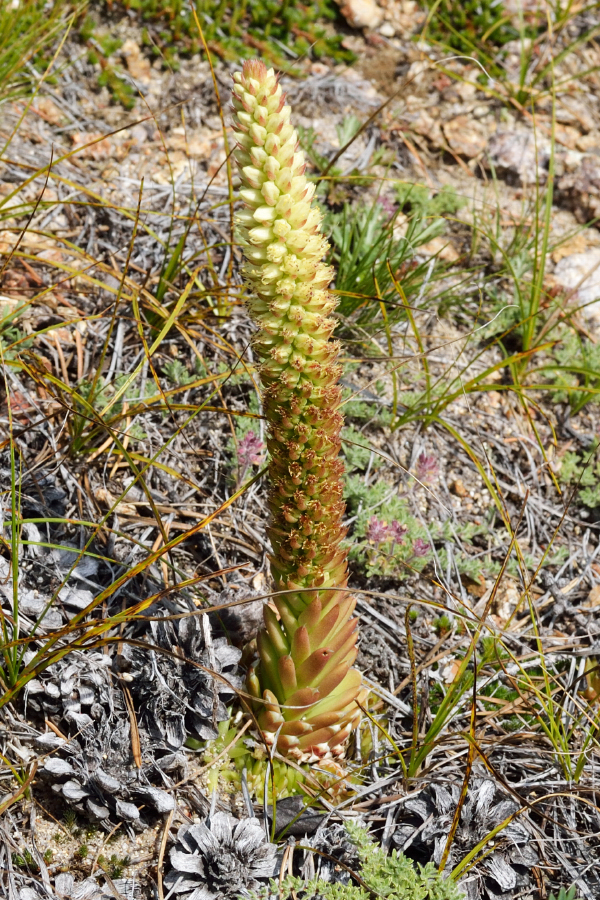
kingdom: Plantae
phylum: Tracheophyta
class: Magnoliopsida
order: Saxifragales
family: Crassulaceae
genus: Orostachys
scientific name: Orostachys spinosa
